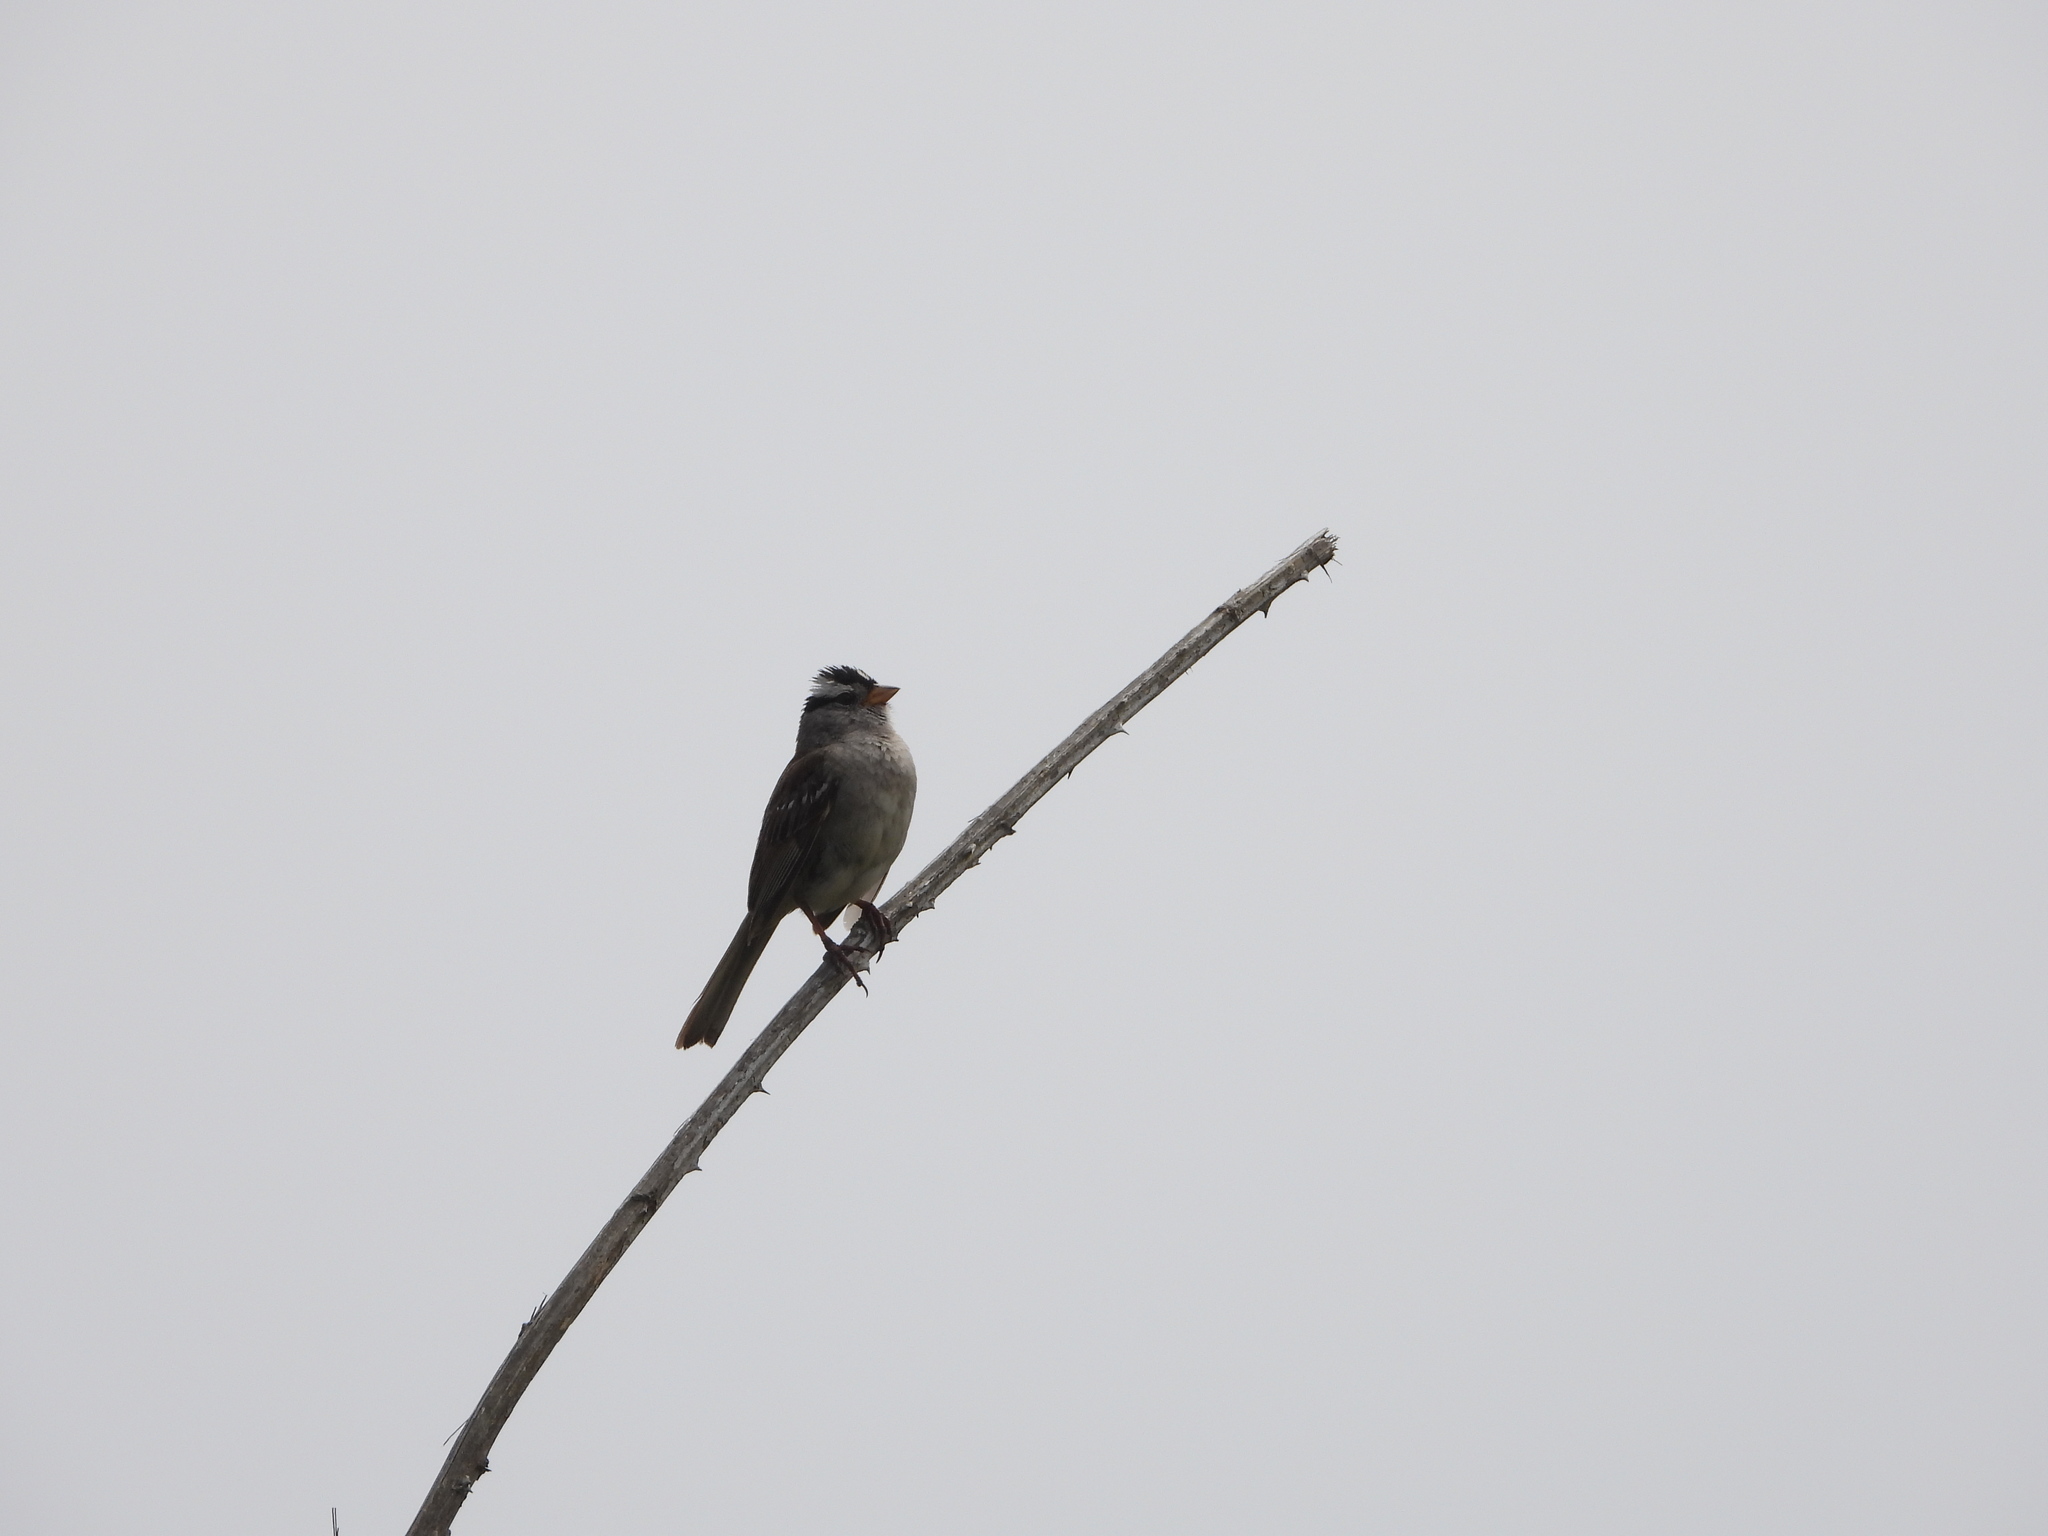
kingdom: Animalia
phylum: Chordata
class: Aves
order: Passeriformes
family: Passerellidae
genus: Zonotrichia
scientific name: Zonotrichia leucophrys
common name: White-crowned sparrow
